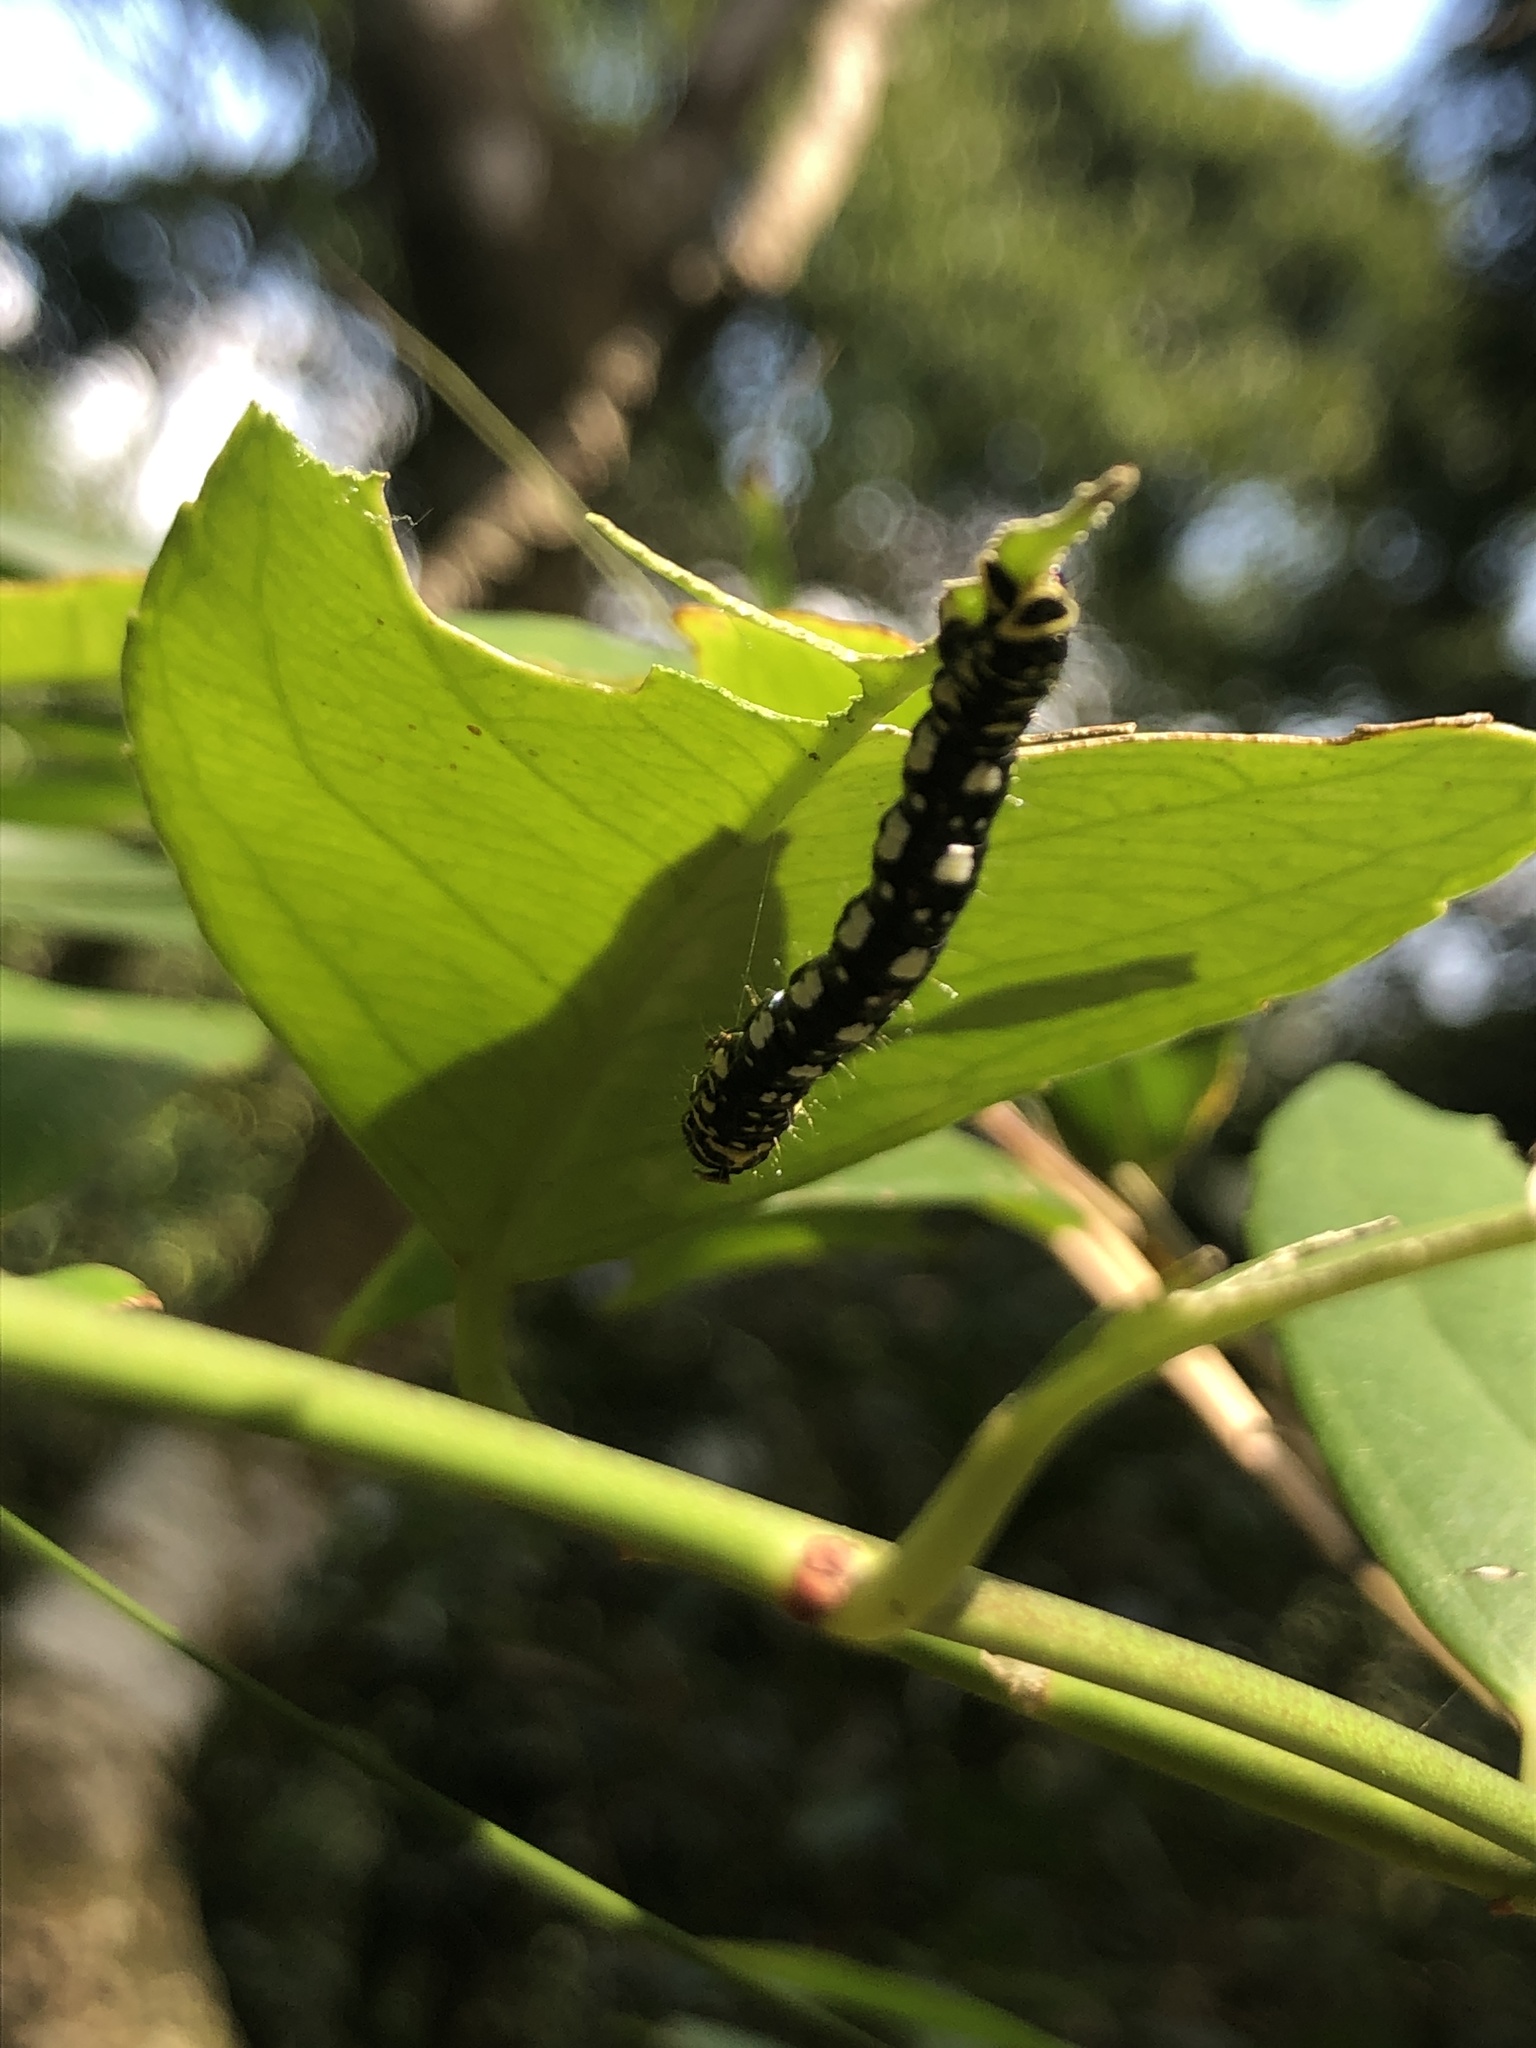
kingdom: Animalia
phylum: Arthropoda
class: Insecta
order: Lepidoptera
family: Geometridae
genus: Abraxas
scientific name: Abraxas illuminata
